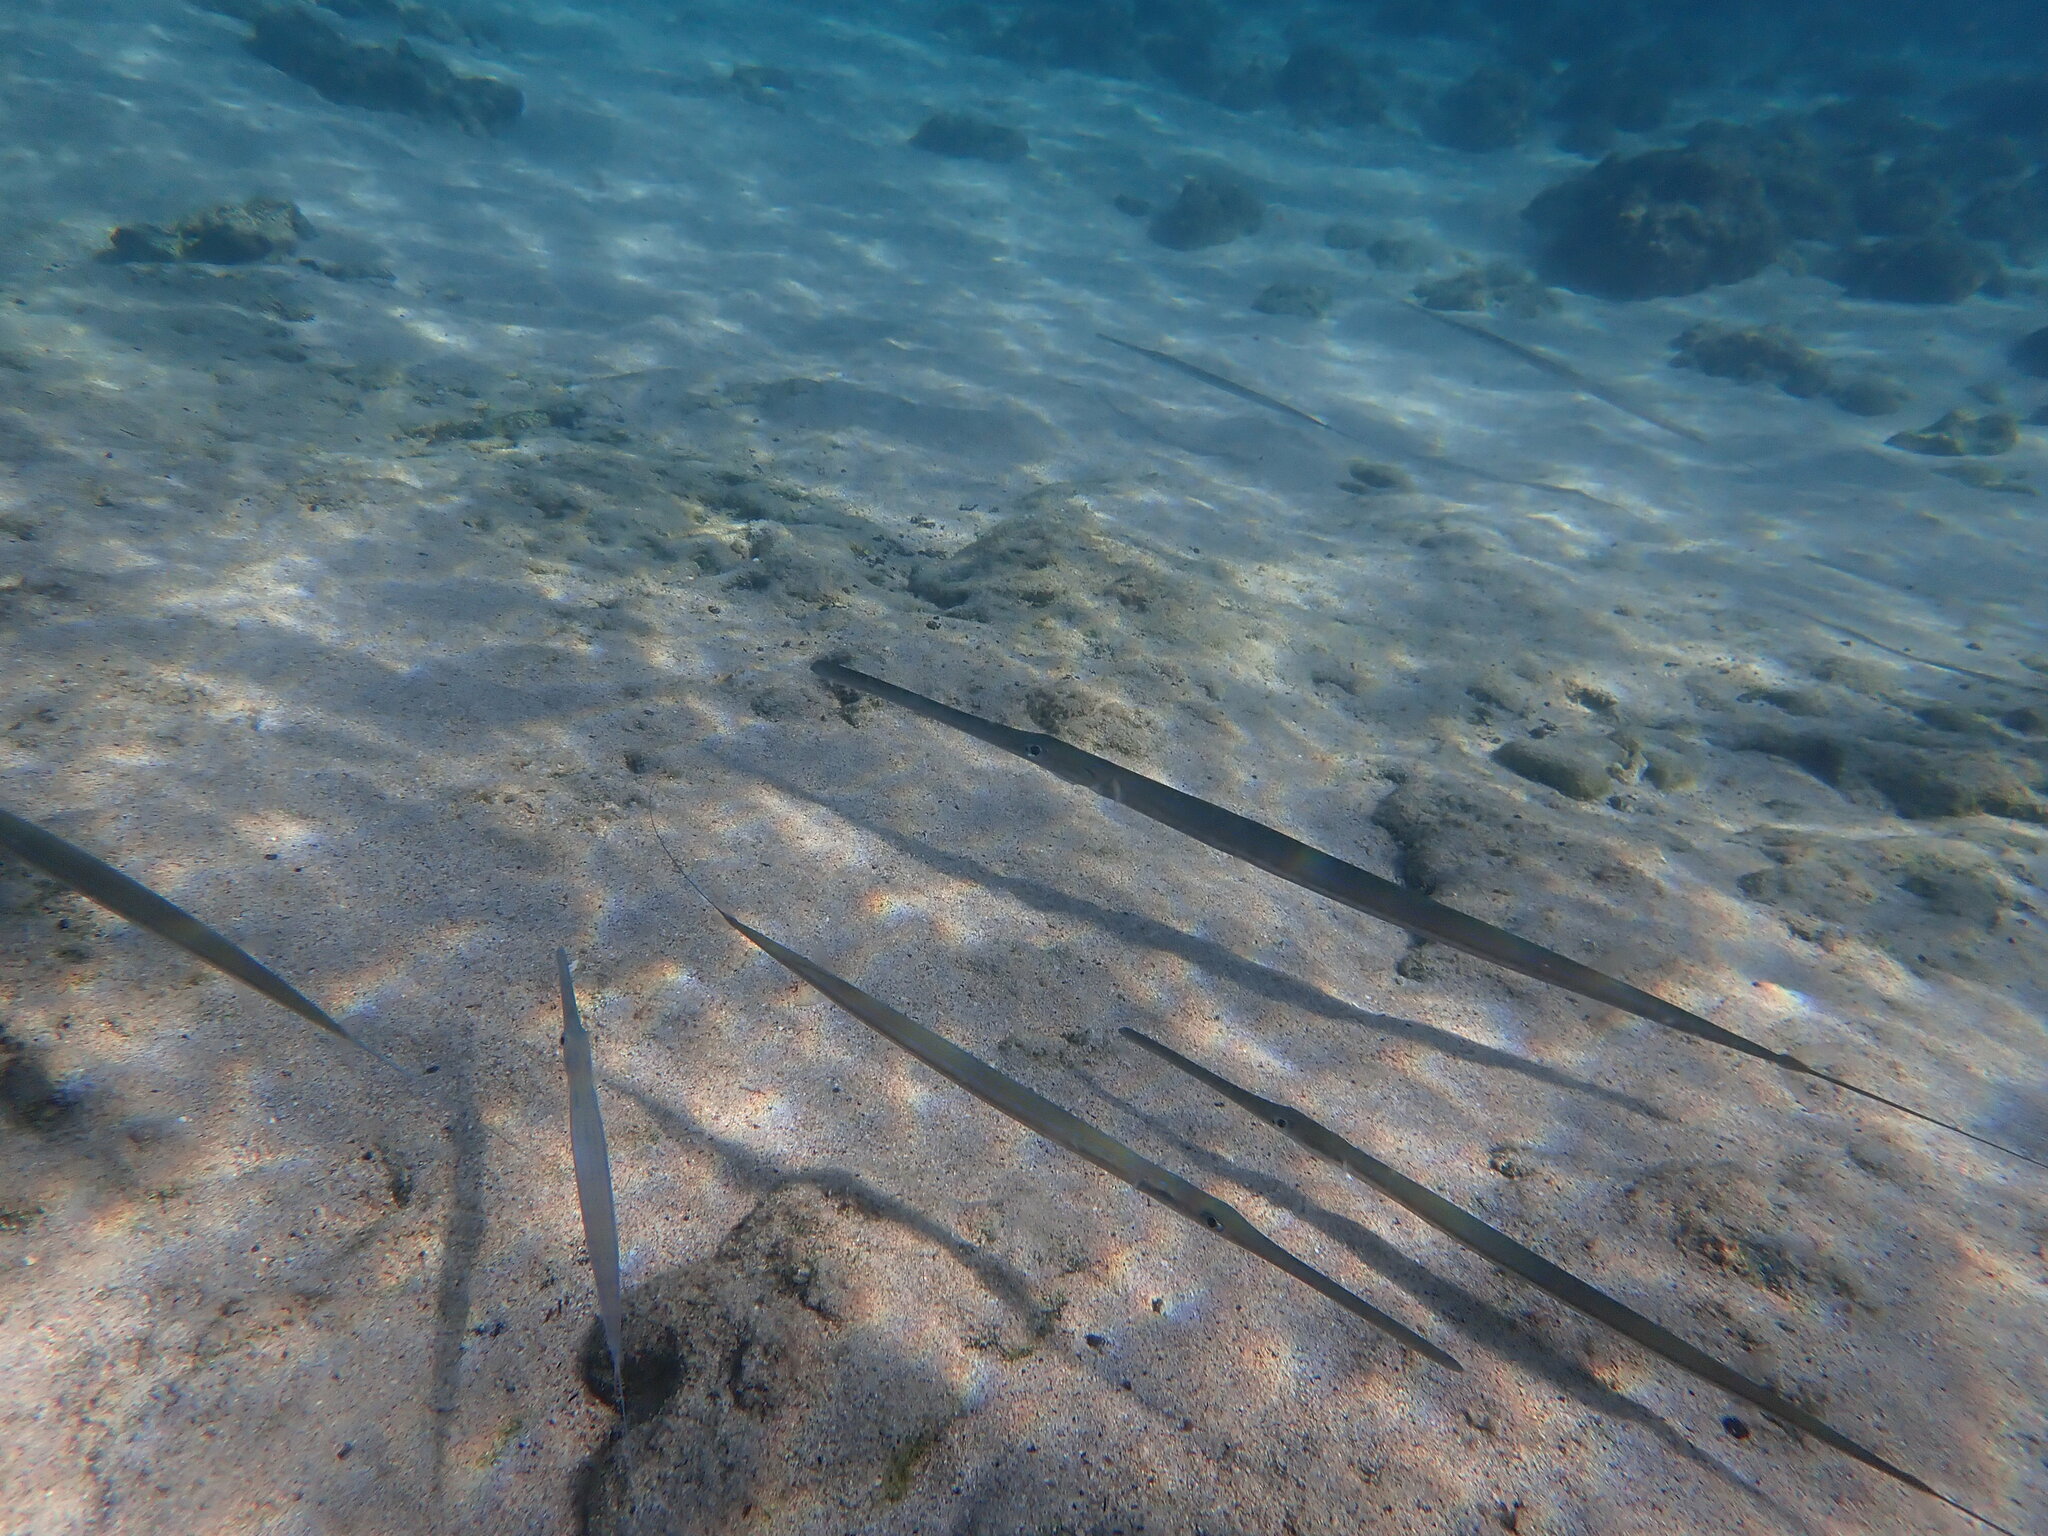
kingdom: Animalia
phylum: Chordata
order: Syngnathiformes
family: Fistulariidae
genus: Fistularia
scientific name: Fistularia commersonii
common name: Bluespotted cornetfish
